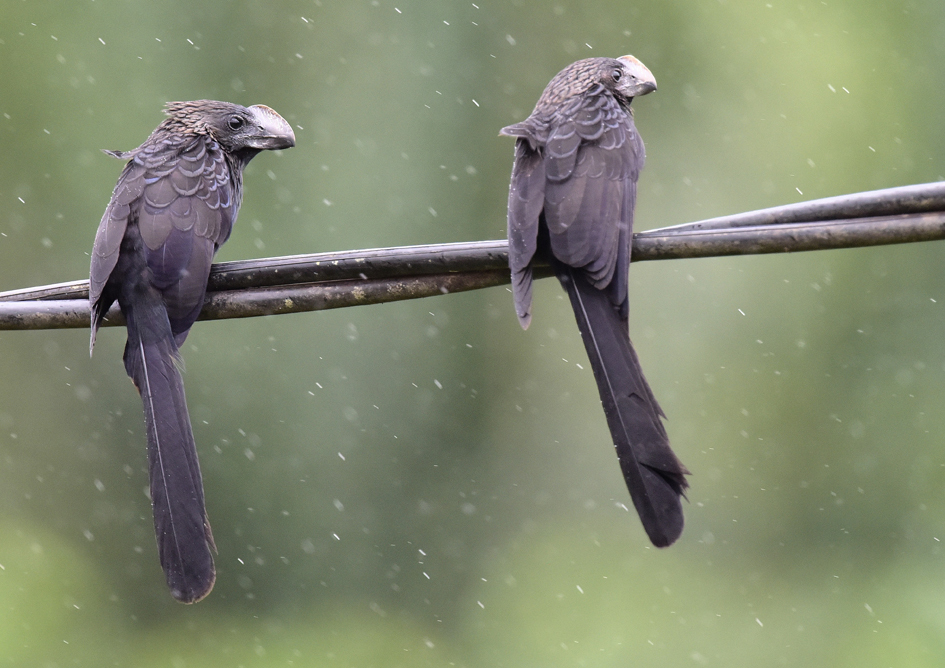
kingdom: Animalia
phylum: Chordata
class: Aves
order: Cuculiformes
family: Cuculidae
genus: Crotophaga
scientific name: Crotophaga ani
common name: Smooth-billed ani
